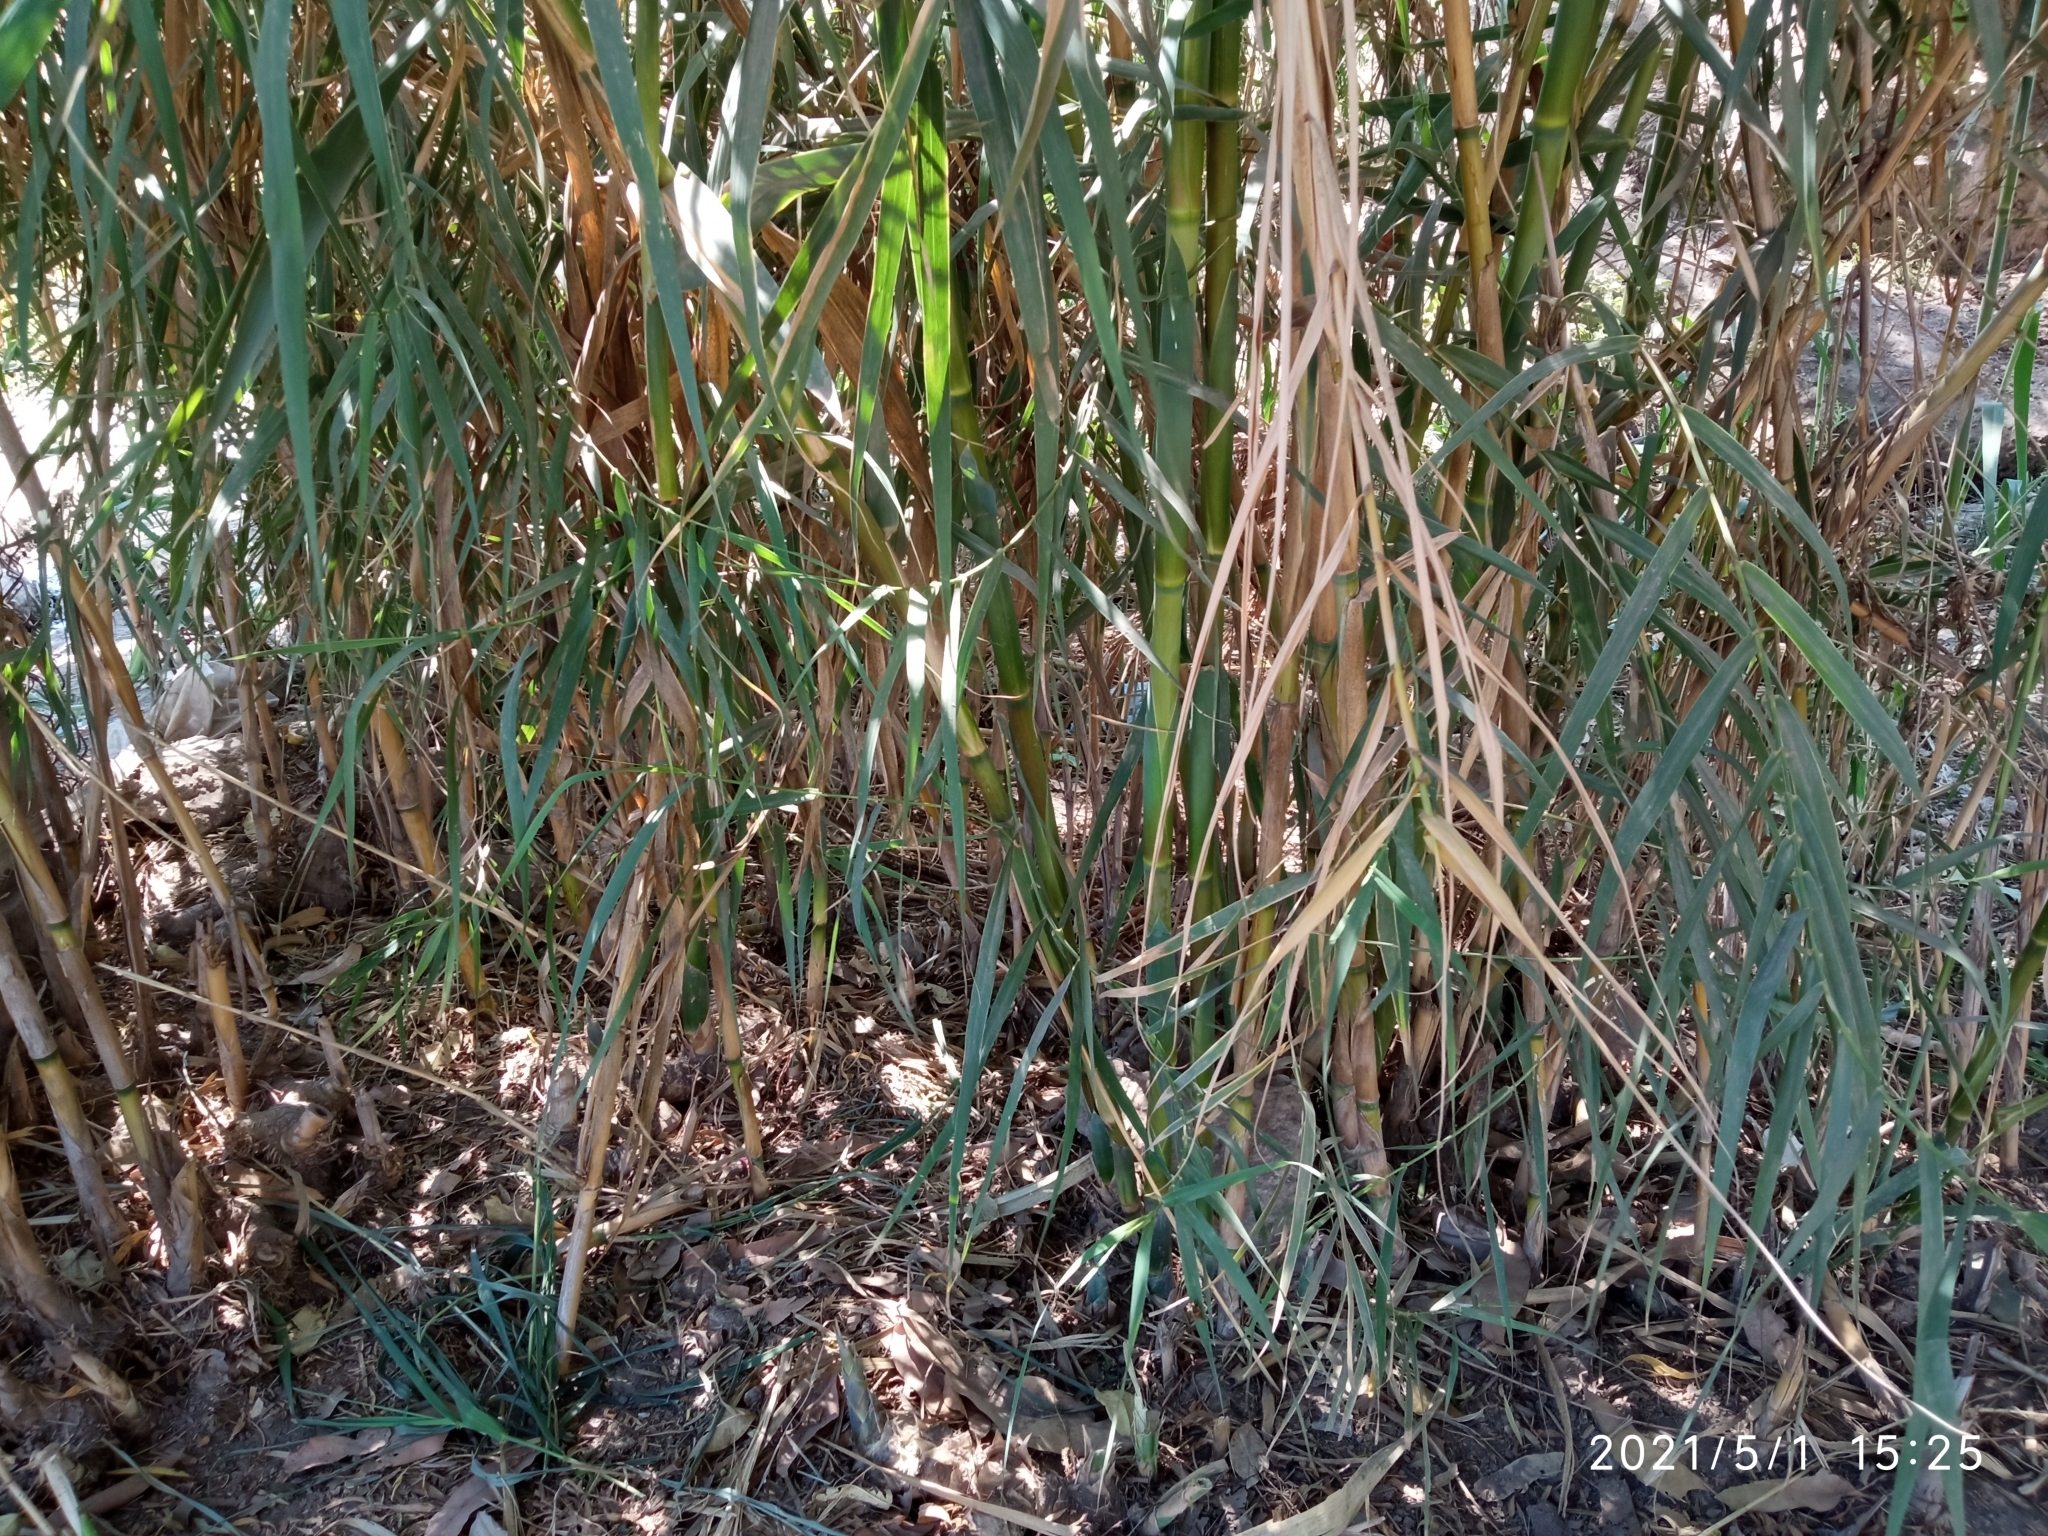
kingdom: Plantae
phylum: Tracheophyta
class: Liliopsida
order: Poales
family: Poaceae
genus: Phragmites
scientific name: Phragmites australis
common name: Common reed
